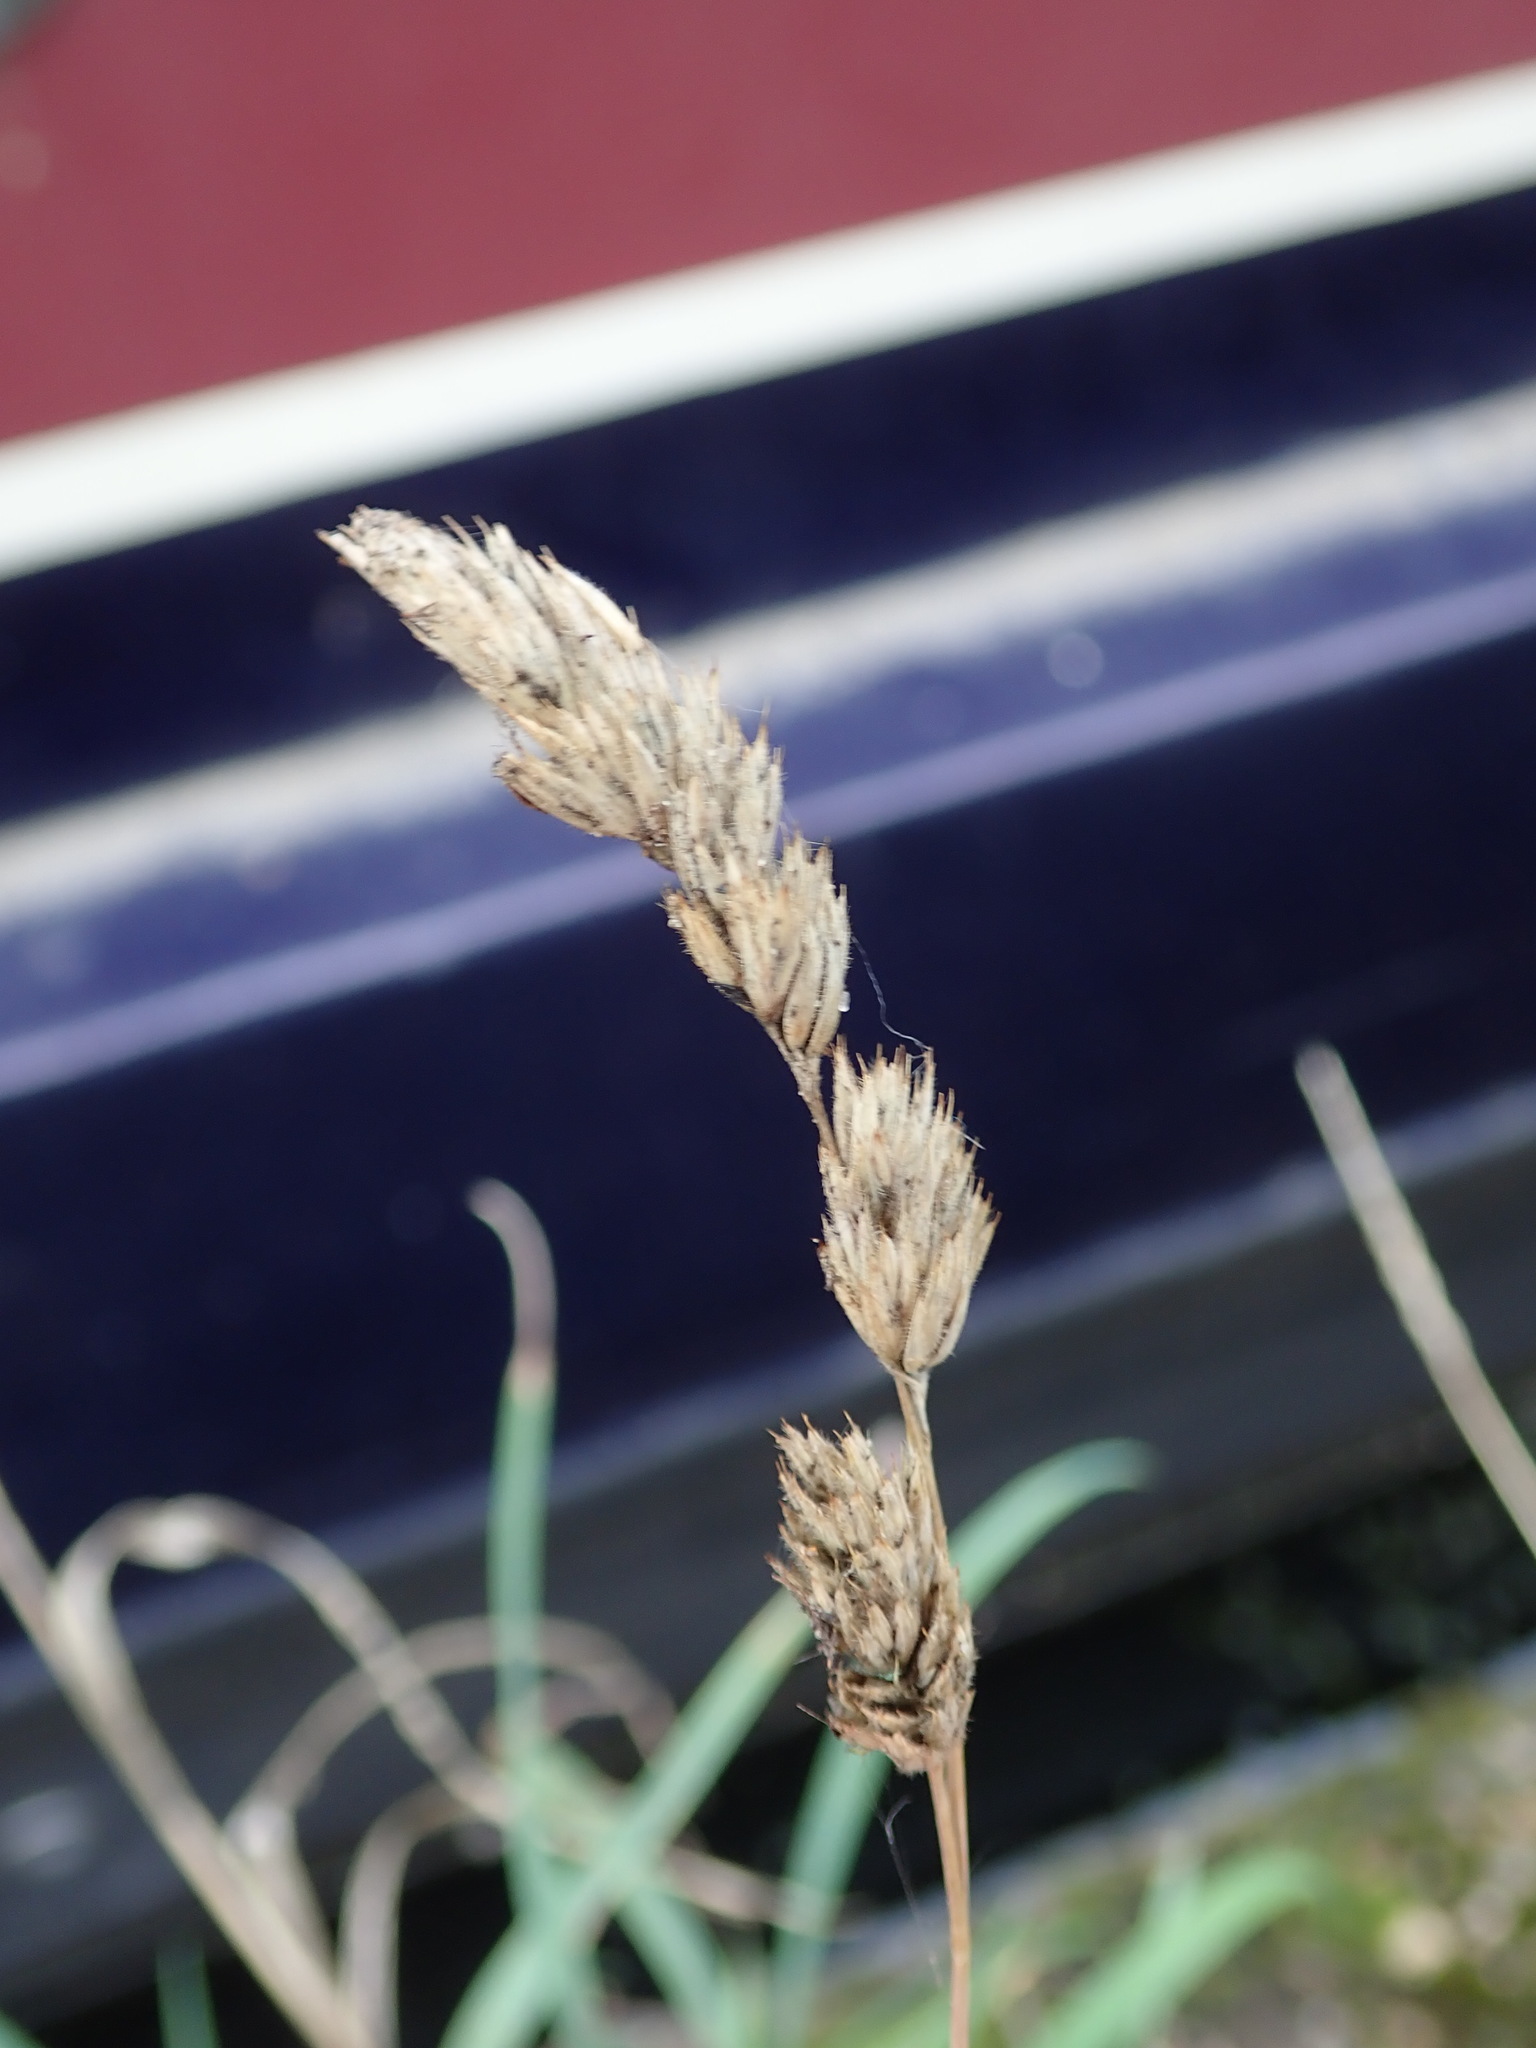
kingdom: Plantae
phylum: Tracheophyta
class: Liliopsida
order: Poales
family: Poaceae
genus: Dactylis
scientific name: Dactylis glomerata
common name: Orchardgrass
